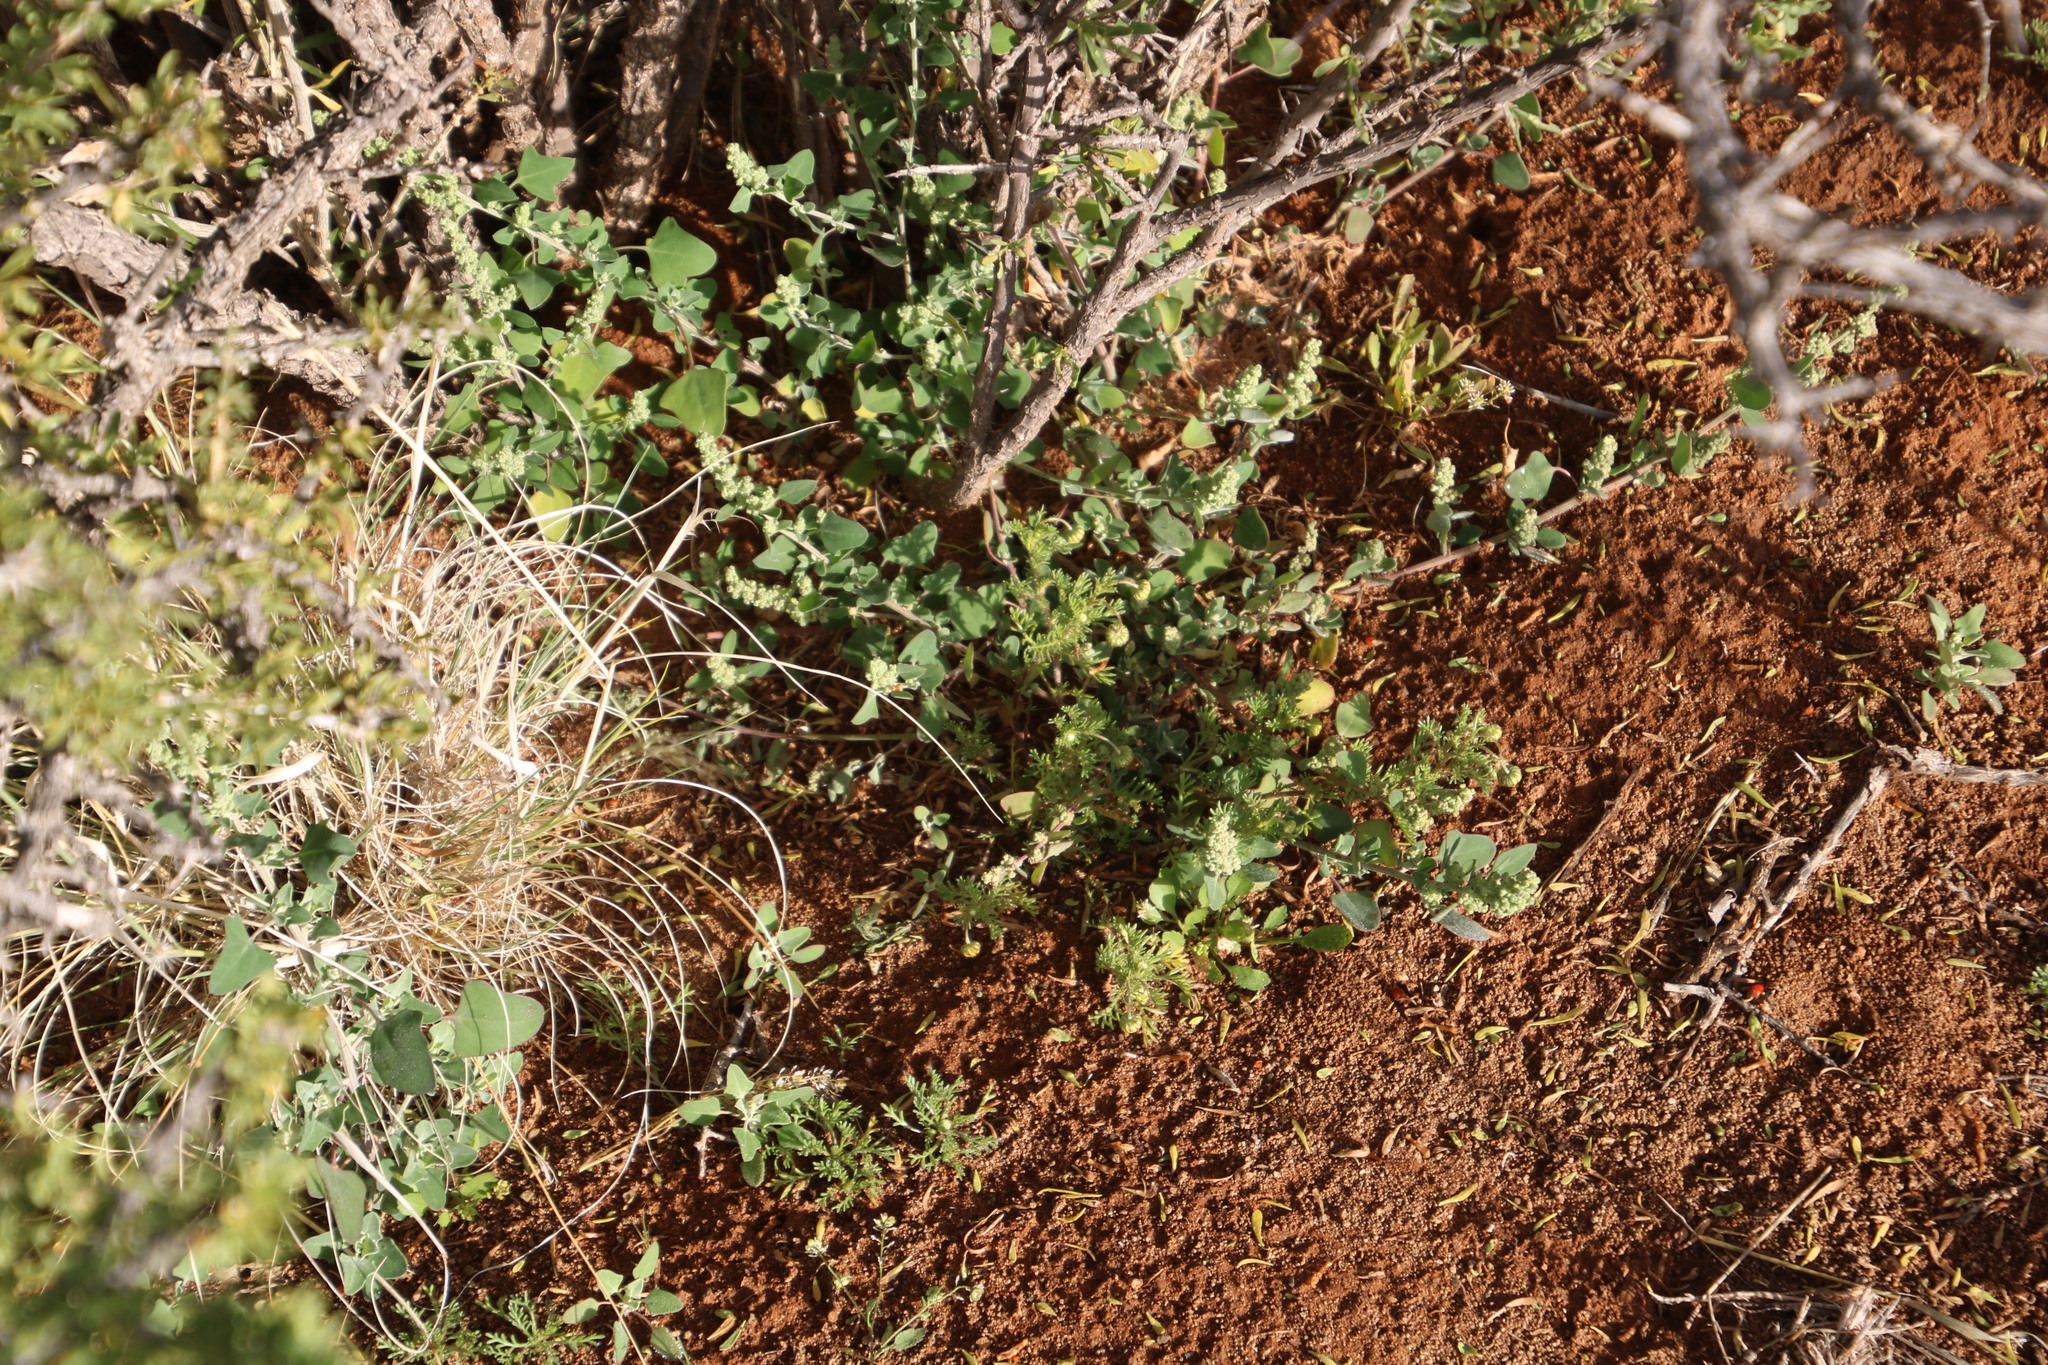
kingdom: Plantae
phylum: Tracheophyta
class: Magnoliopsida
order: Caryophyllales
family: Amaranthaceae
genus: Chenopodium
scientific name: Chenopodium phillipsianum
